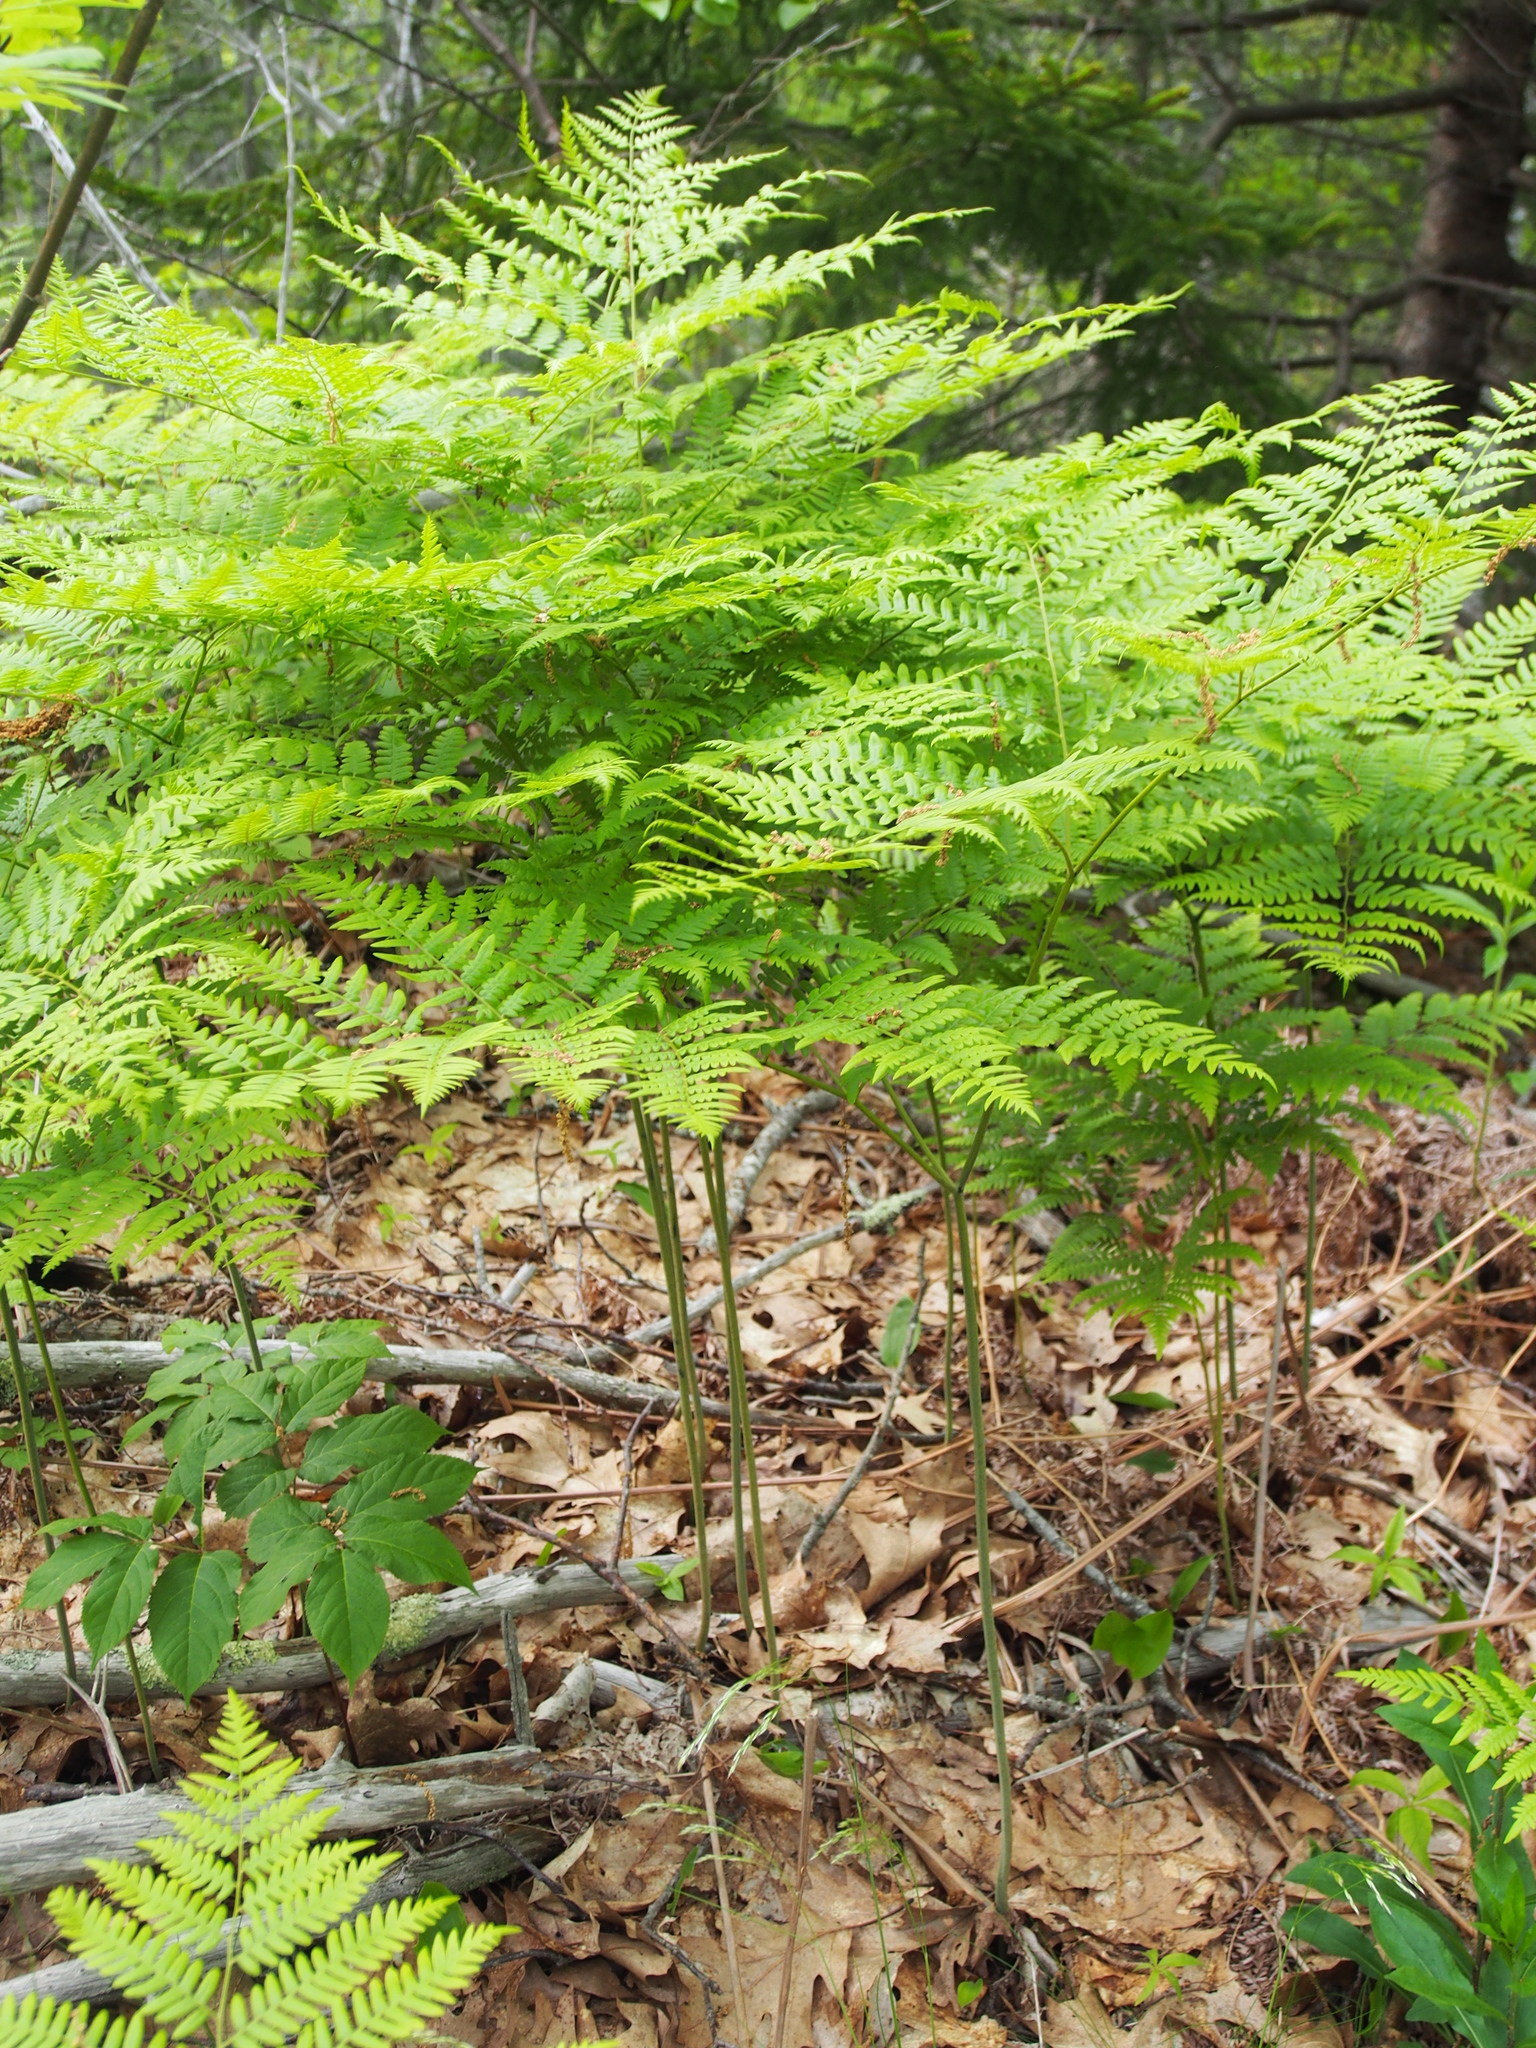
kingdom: Plantae
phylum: Tracheophyta
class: Polypodiopsida
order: Polypodiales
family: Dennstaedtiaceae
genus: Pteridium
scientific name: Pteridium aquilinum
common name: Bracken
